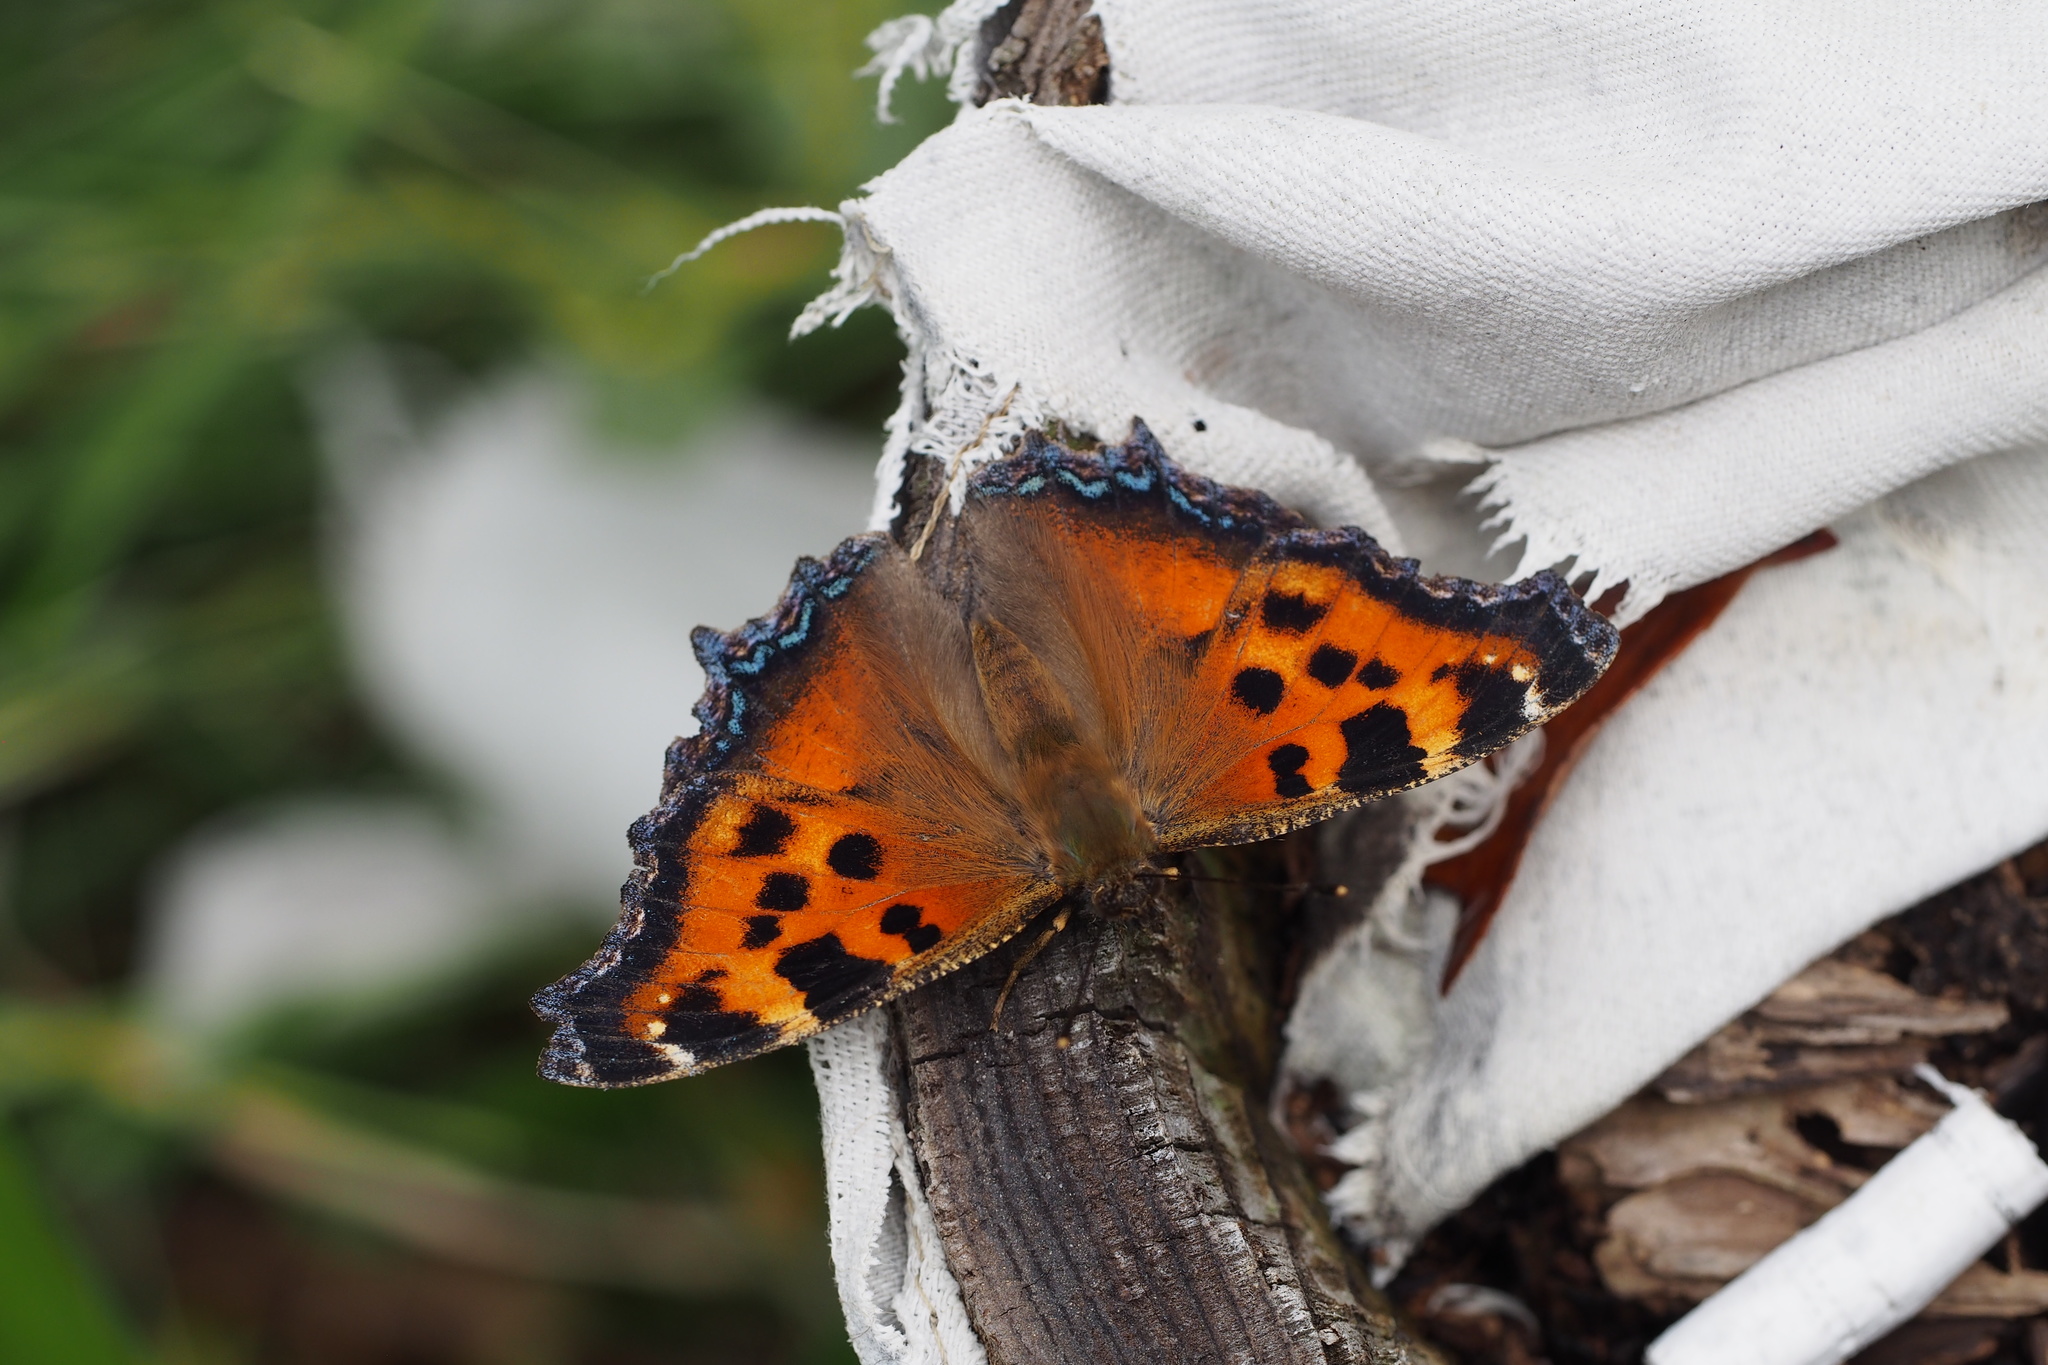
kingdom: Animalia
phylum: Arthropoda
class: Insecta
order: Lepidoptera
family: Nymphalidae
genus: Nymphalis
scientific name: Nymphalis xanthomelas
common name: Scarce tortoiseshell
